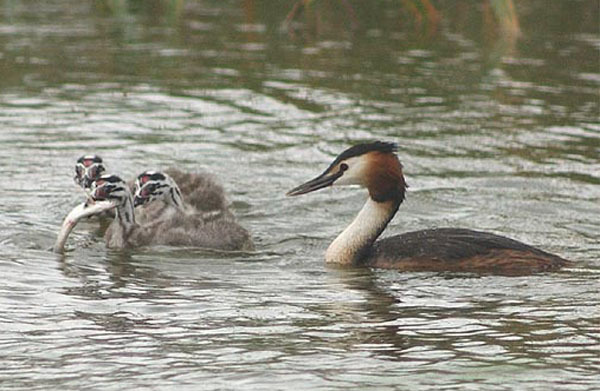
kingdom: Animalia
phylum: Chordata
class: Aves
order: Podicipediformes
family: Podicipedidae
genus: Podiceps
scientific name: Podiceps cristatus
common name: Great crested grebe
